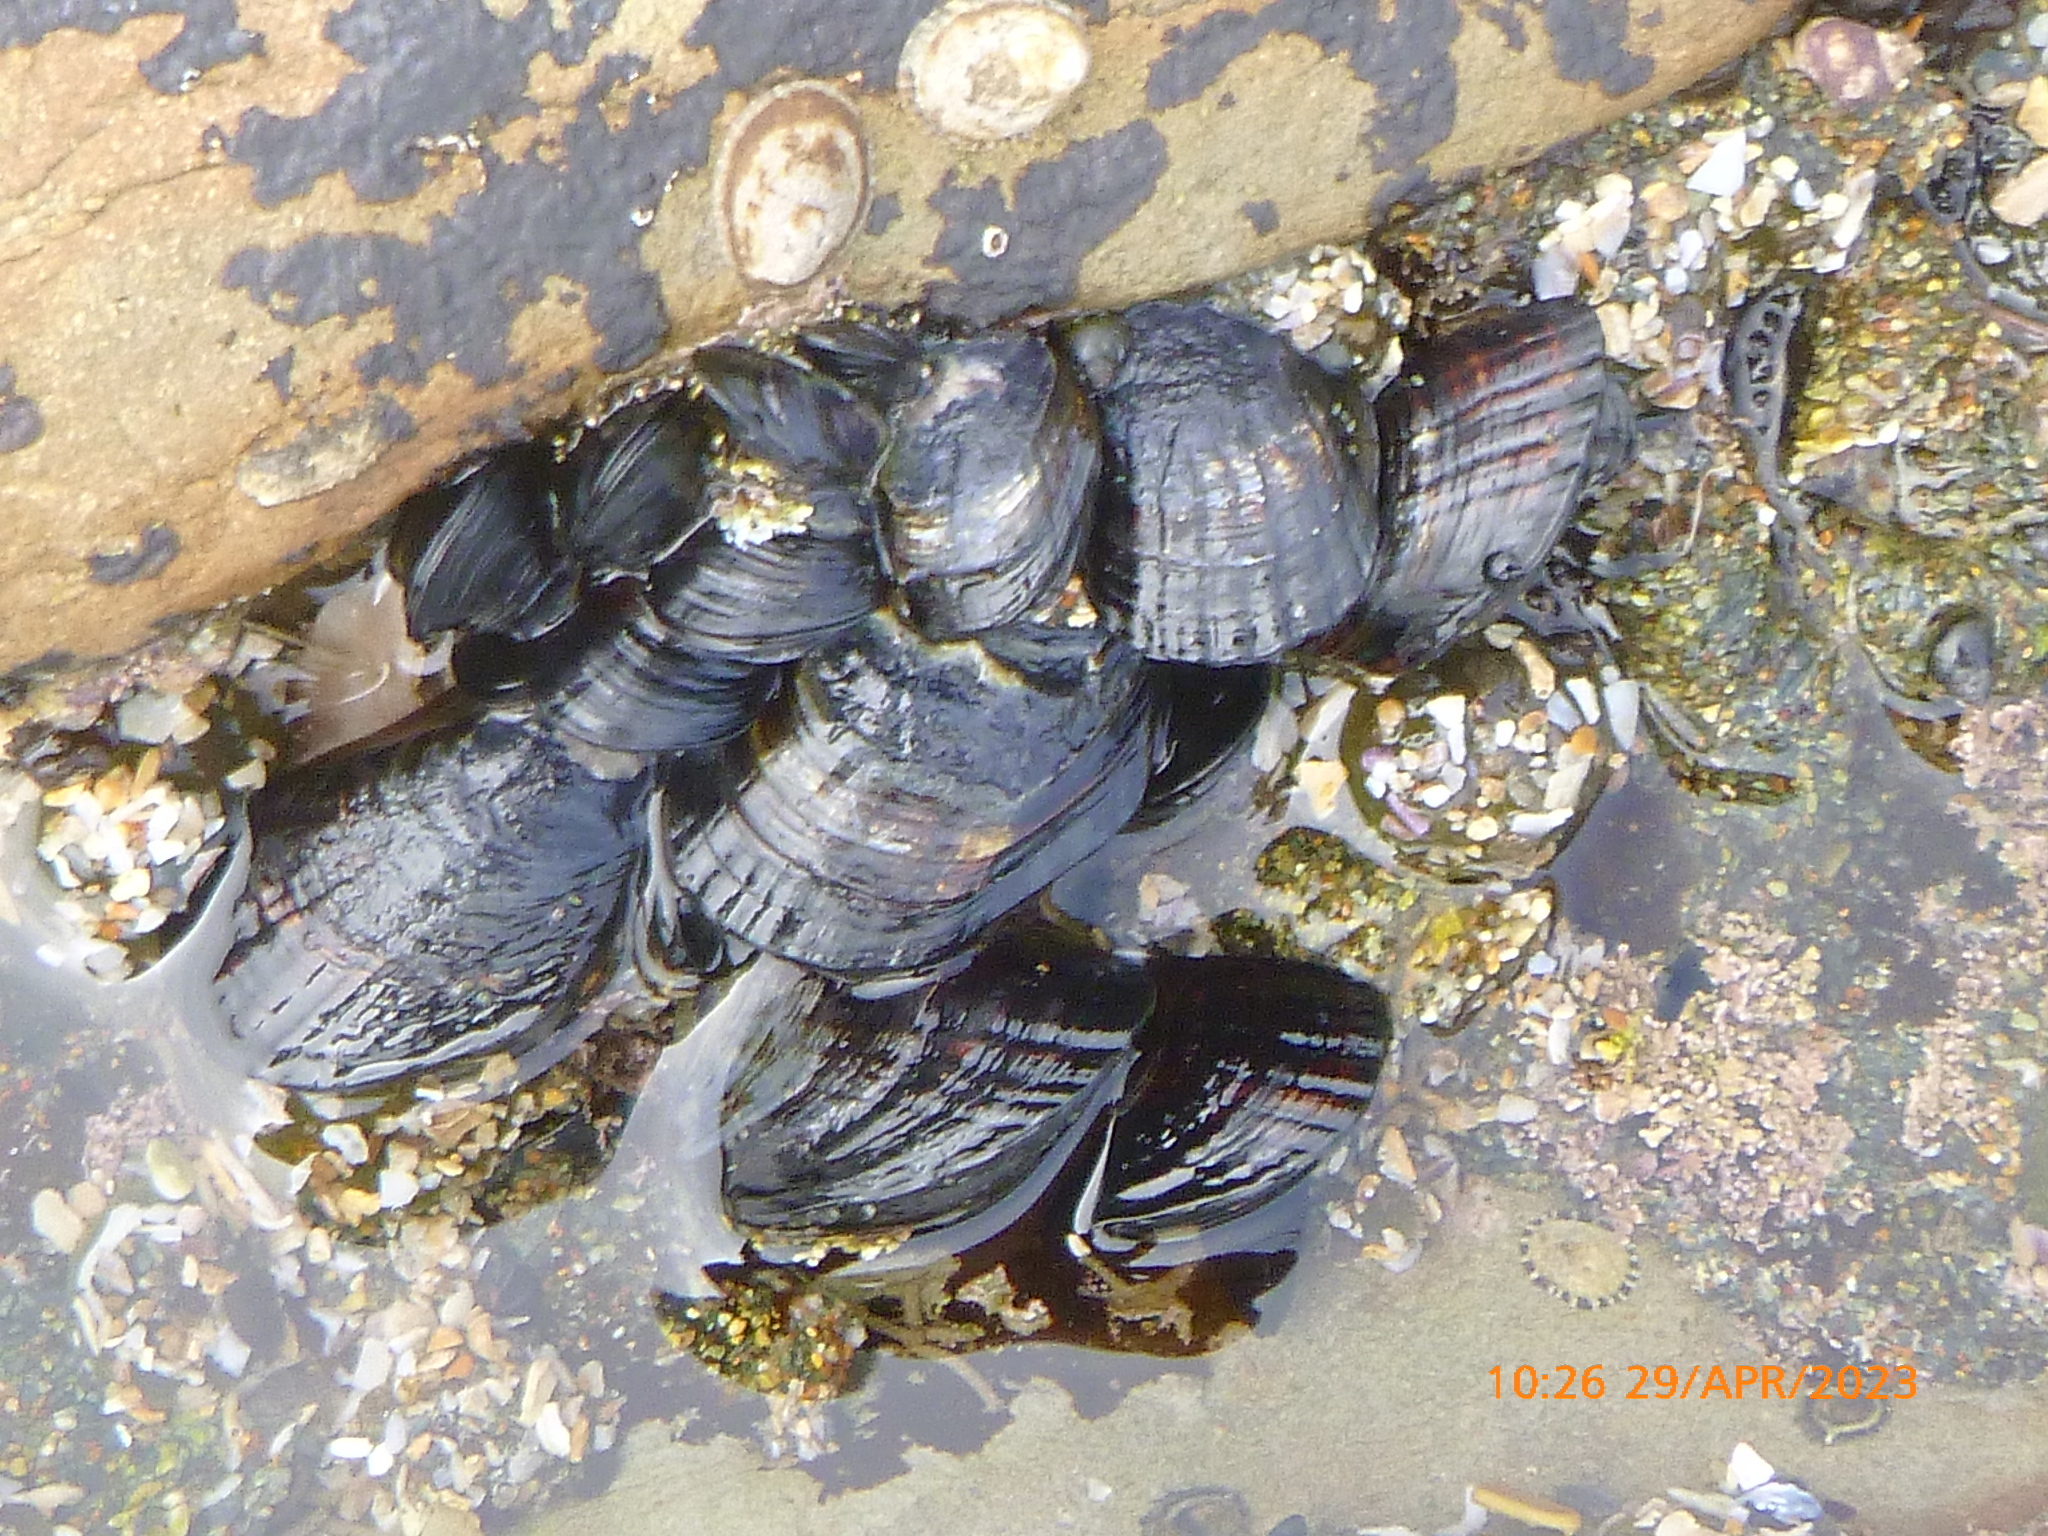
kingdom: Animalia
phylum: Mollusca
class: Bivalvia
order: Mytilida
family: Mytilidae
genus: Mytilus
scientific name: Mytilus californianus
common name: California mussel
